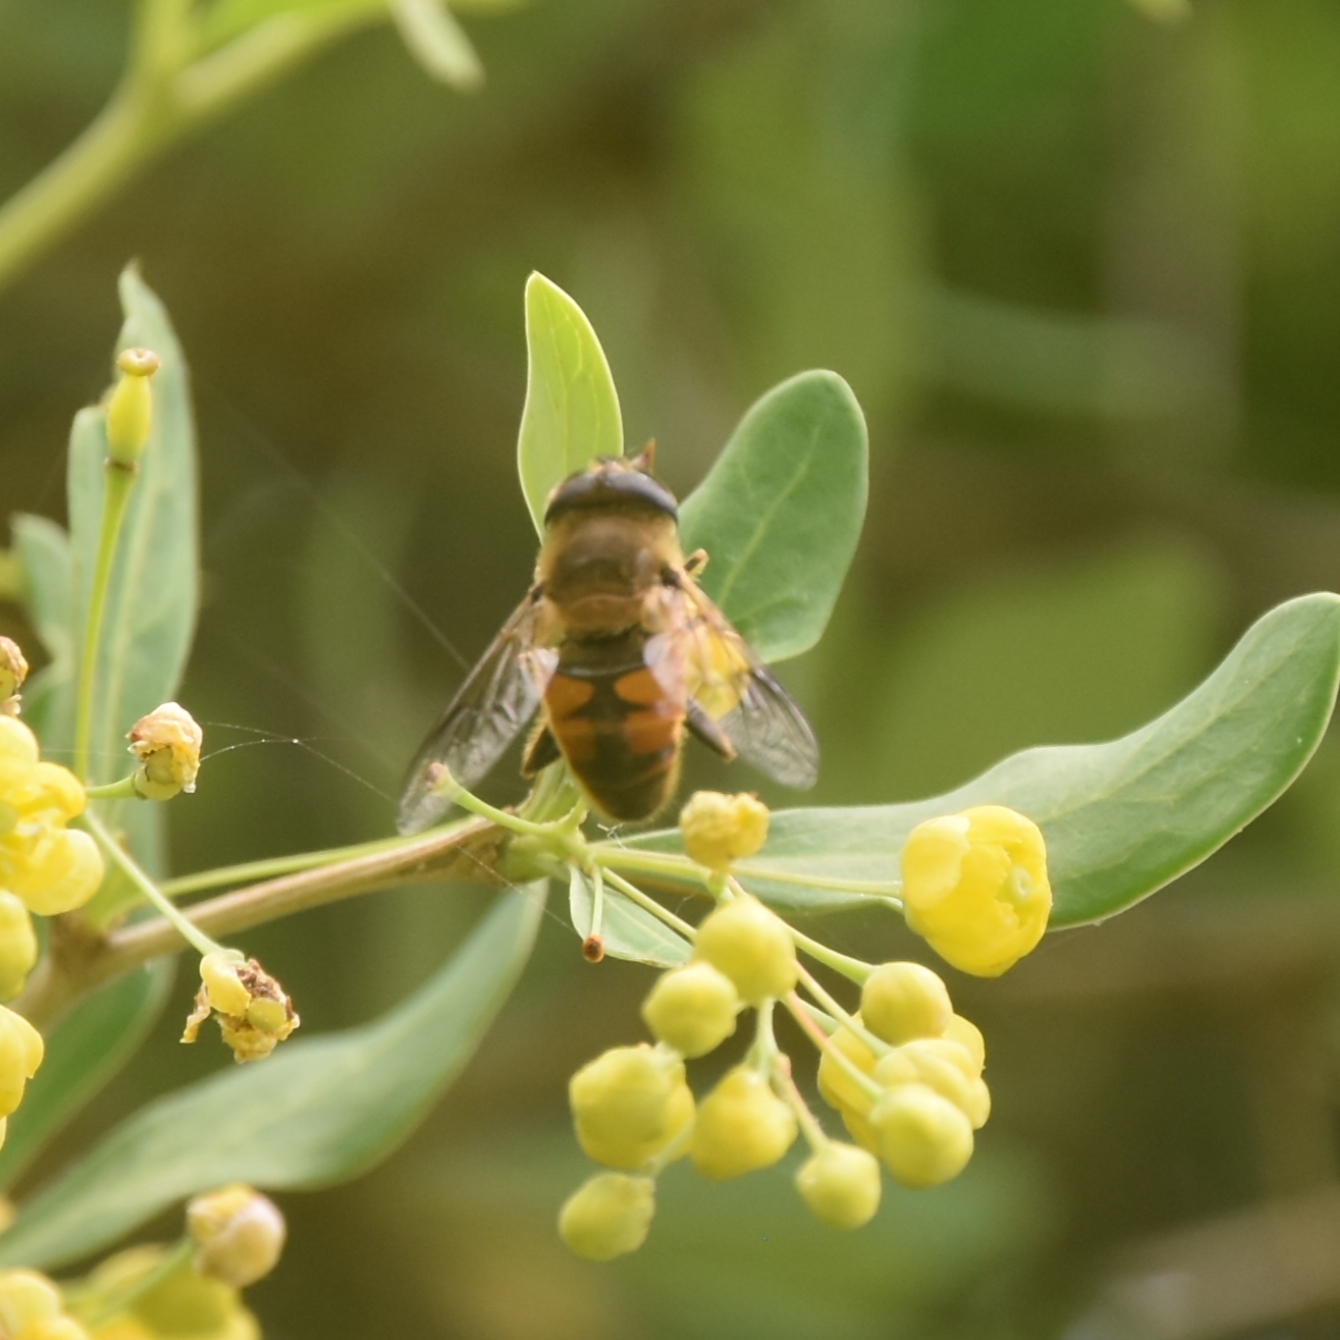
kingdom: Animalia
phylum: Arthropoda
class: Insecta
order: Diptera
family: Syrphidae
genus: Eristalis
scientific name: Eristalis tenax
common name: Drone fly
